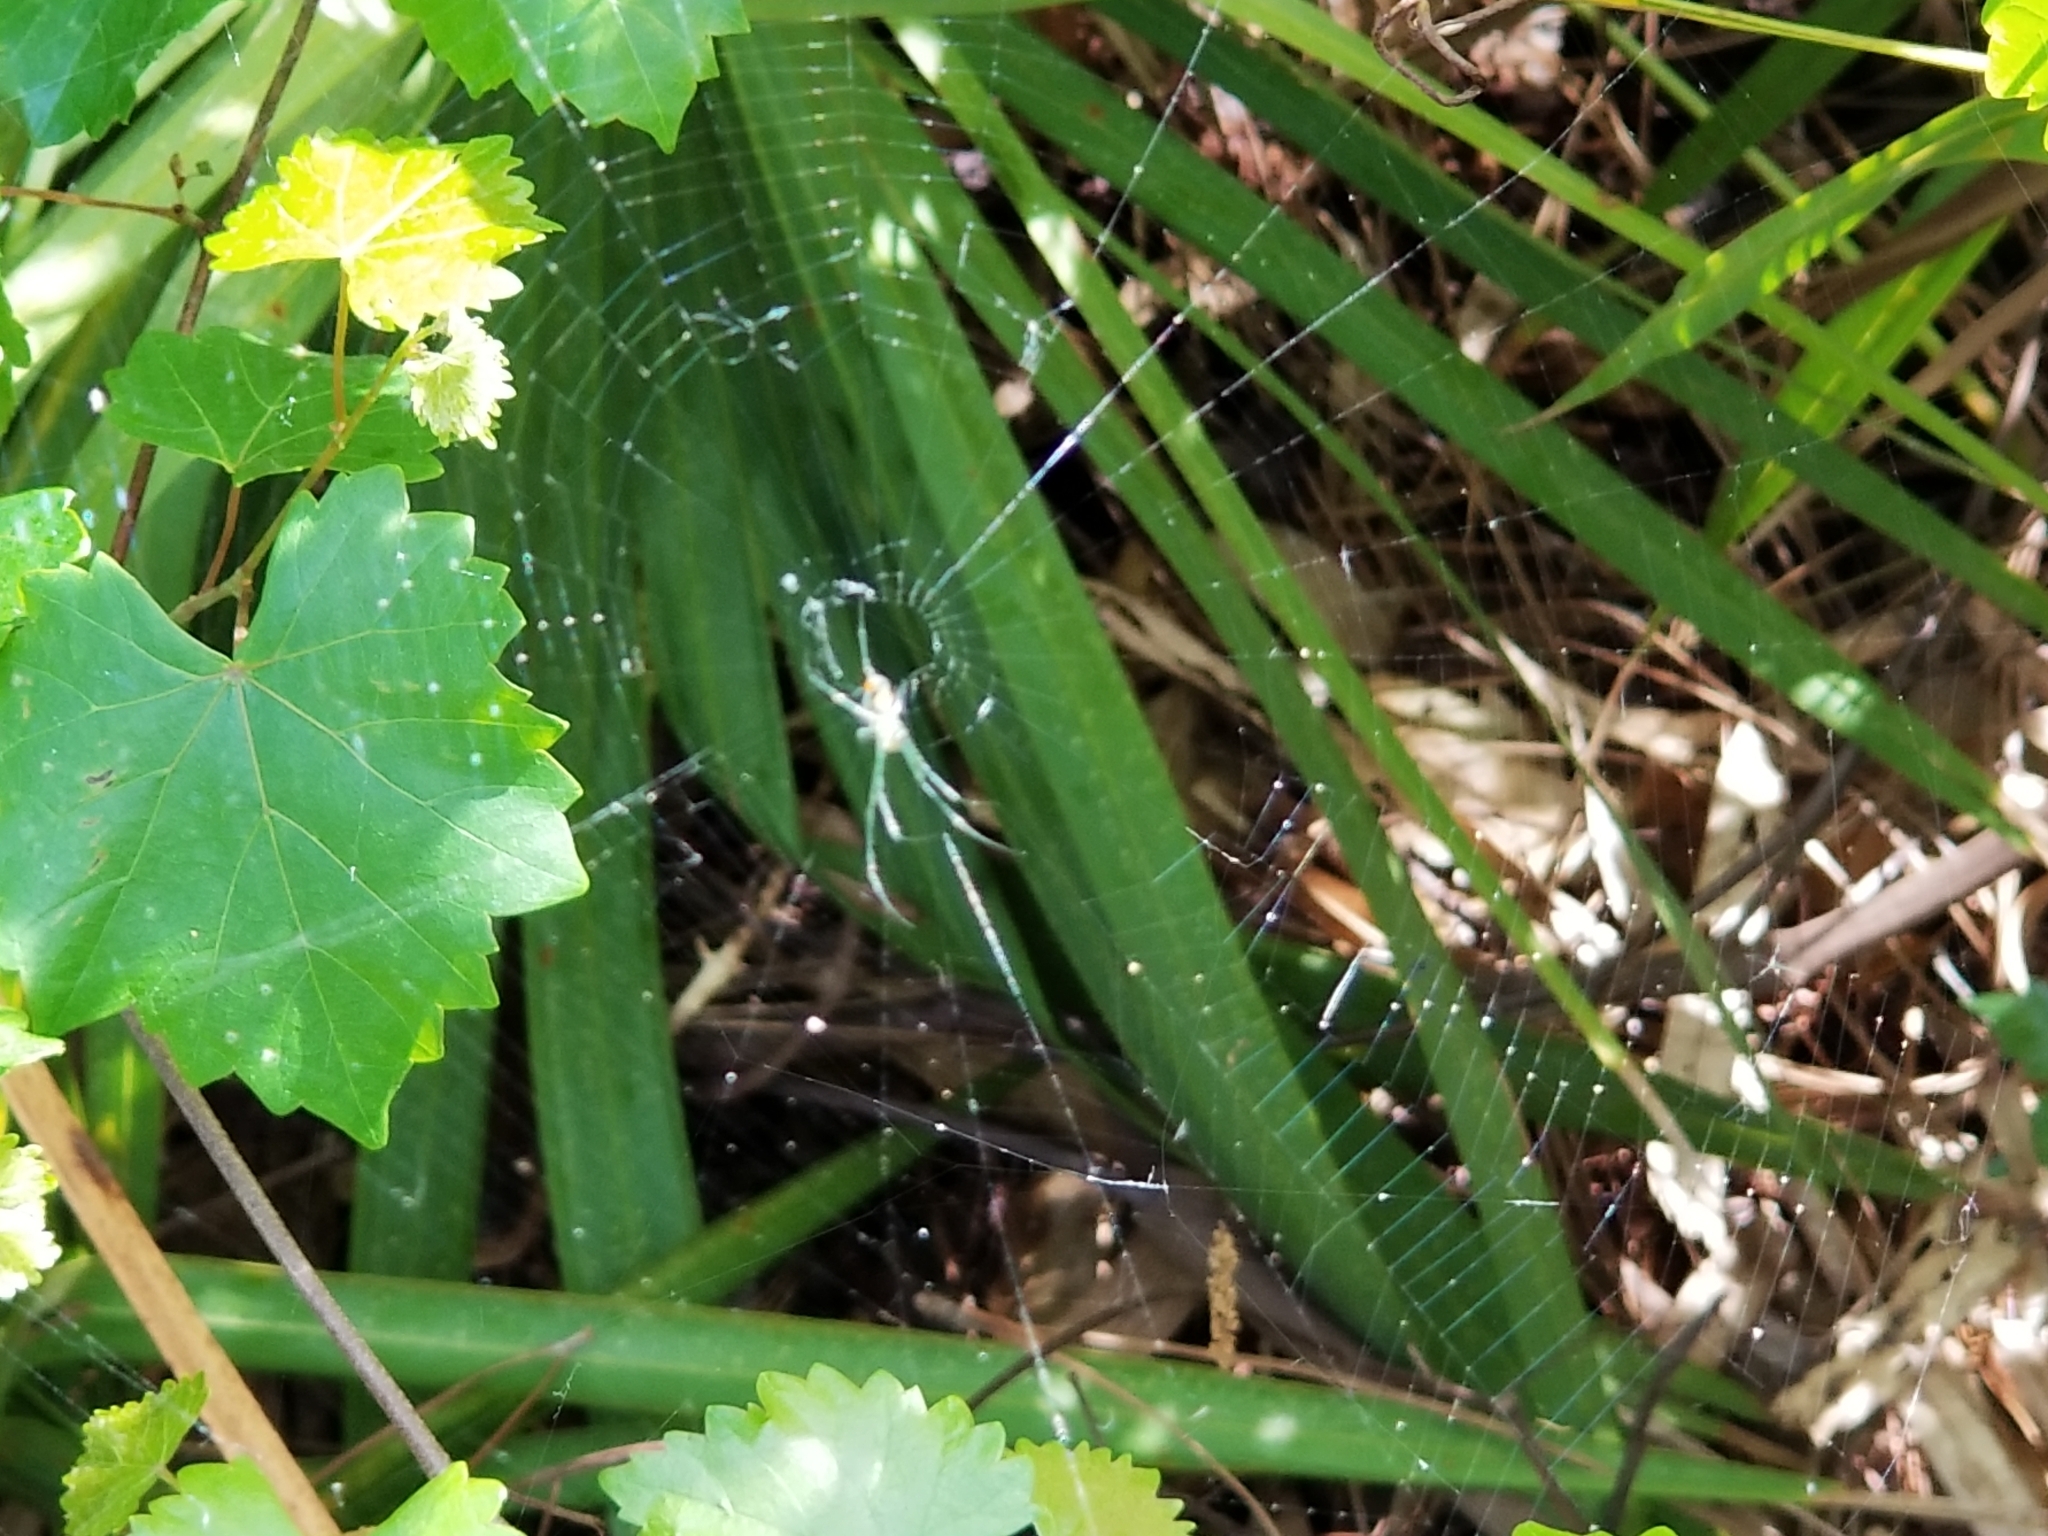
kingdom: Animalia
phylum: Arthropoda
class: Arachnida
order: Araneae
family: Tetragnathidae
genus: Leucauge
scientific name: Leucauge argyrobapta
